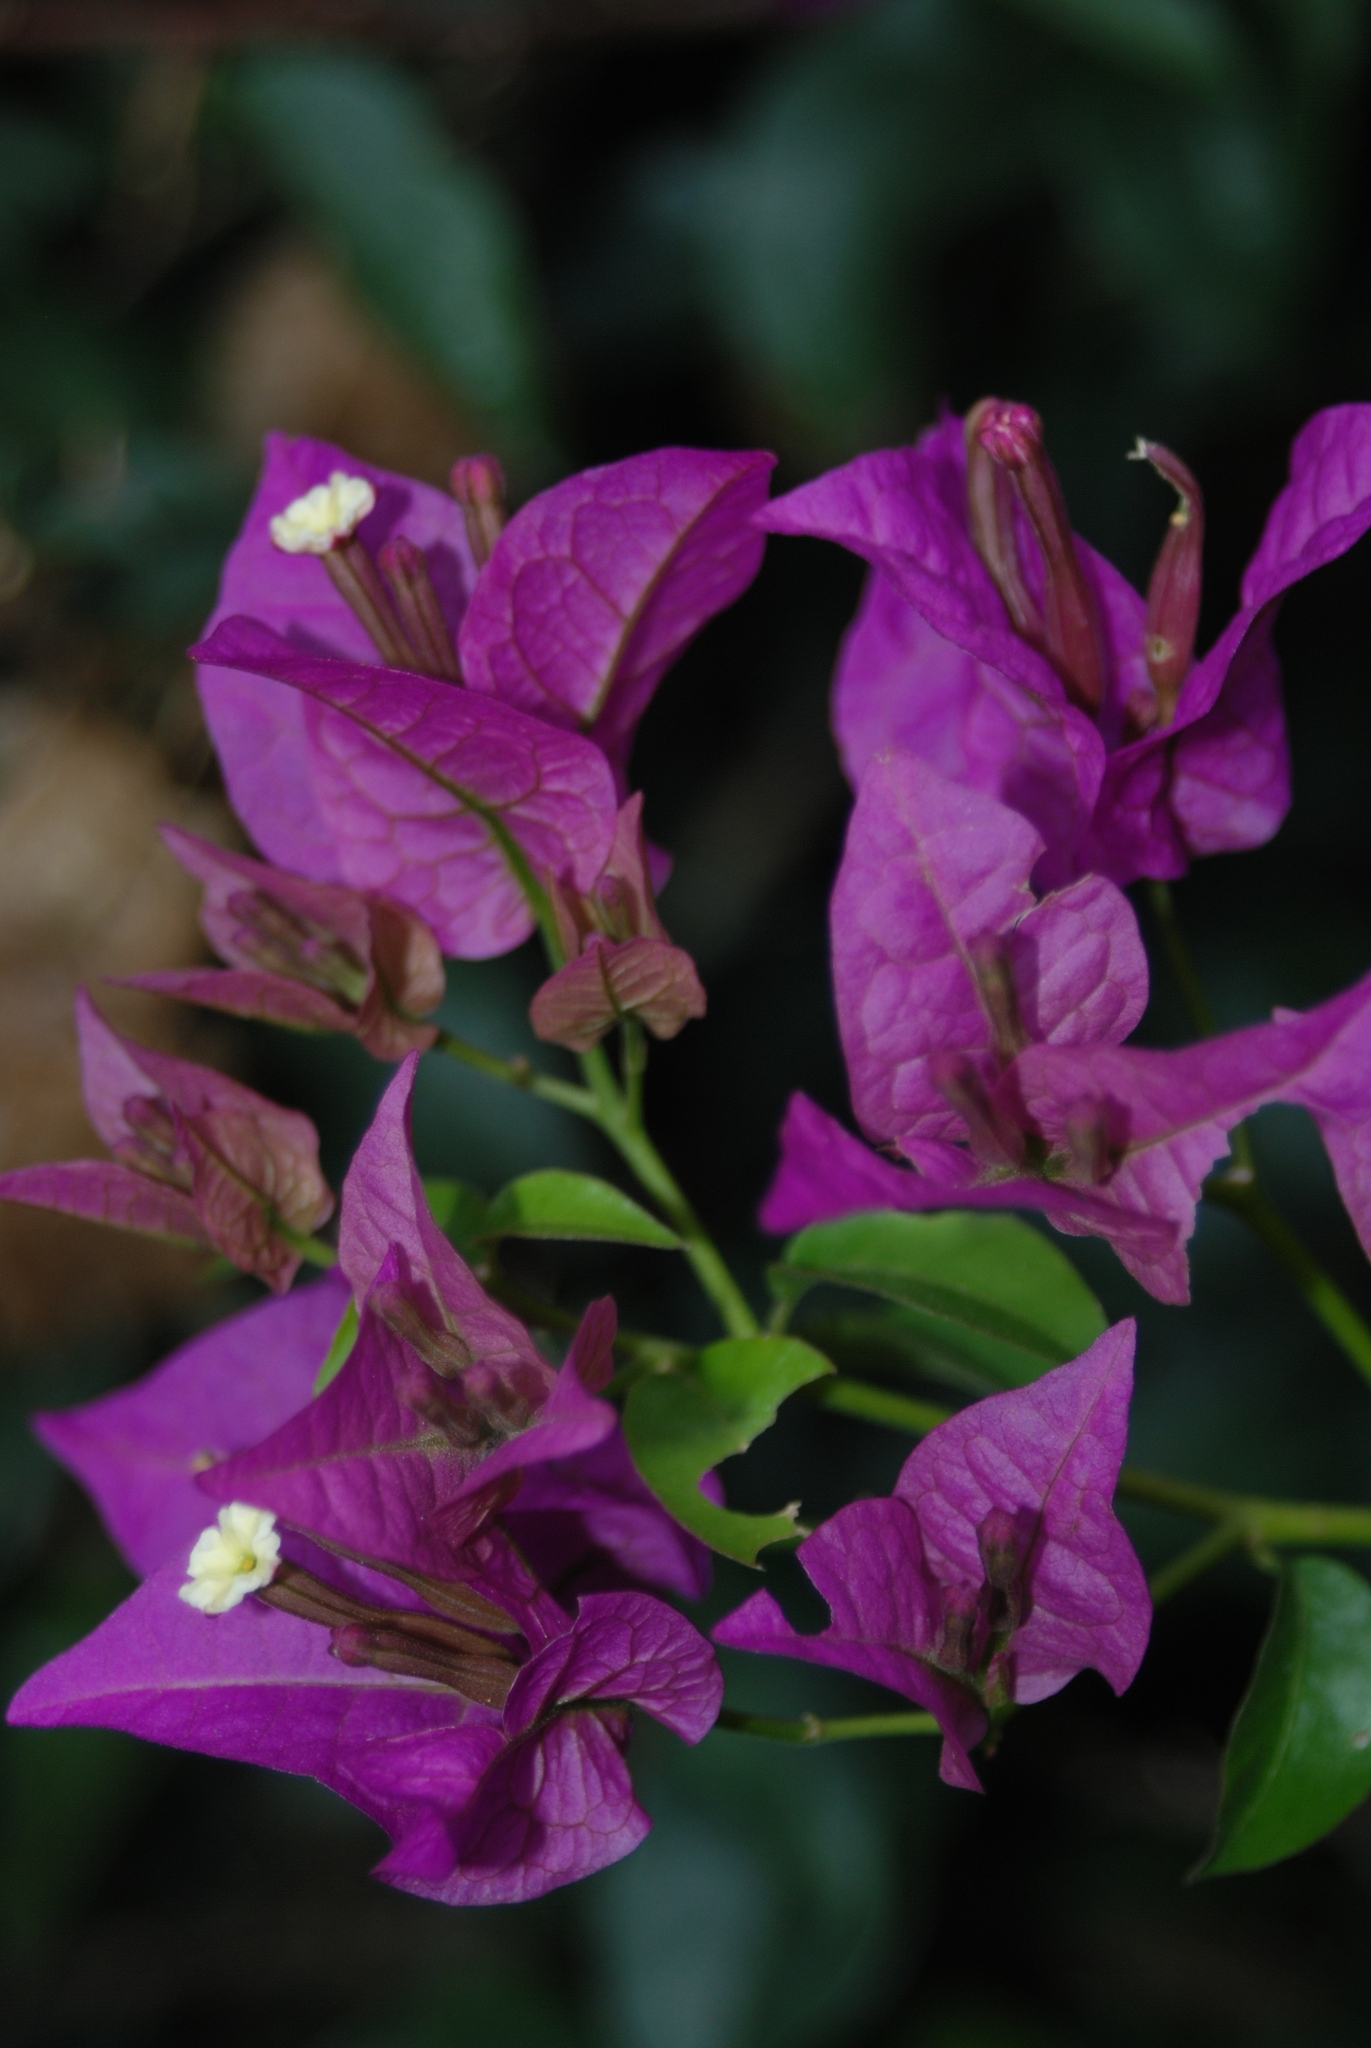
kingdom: Plantae
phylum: Tracheophyta
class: Magnoliopsida
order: Caryophyllales
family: Nyctaginaceae
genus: Bougainvillea
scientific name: Bougainvillea glabra
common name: Paperflower
